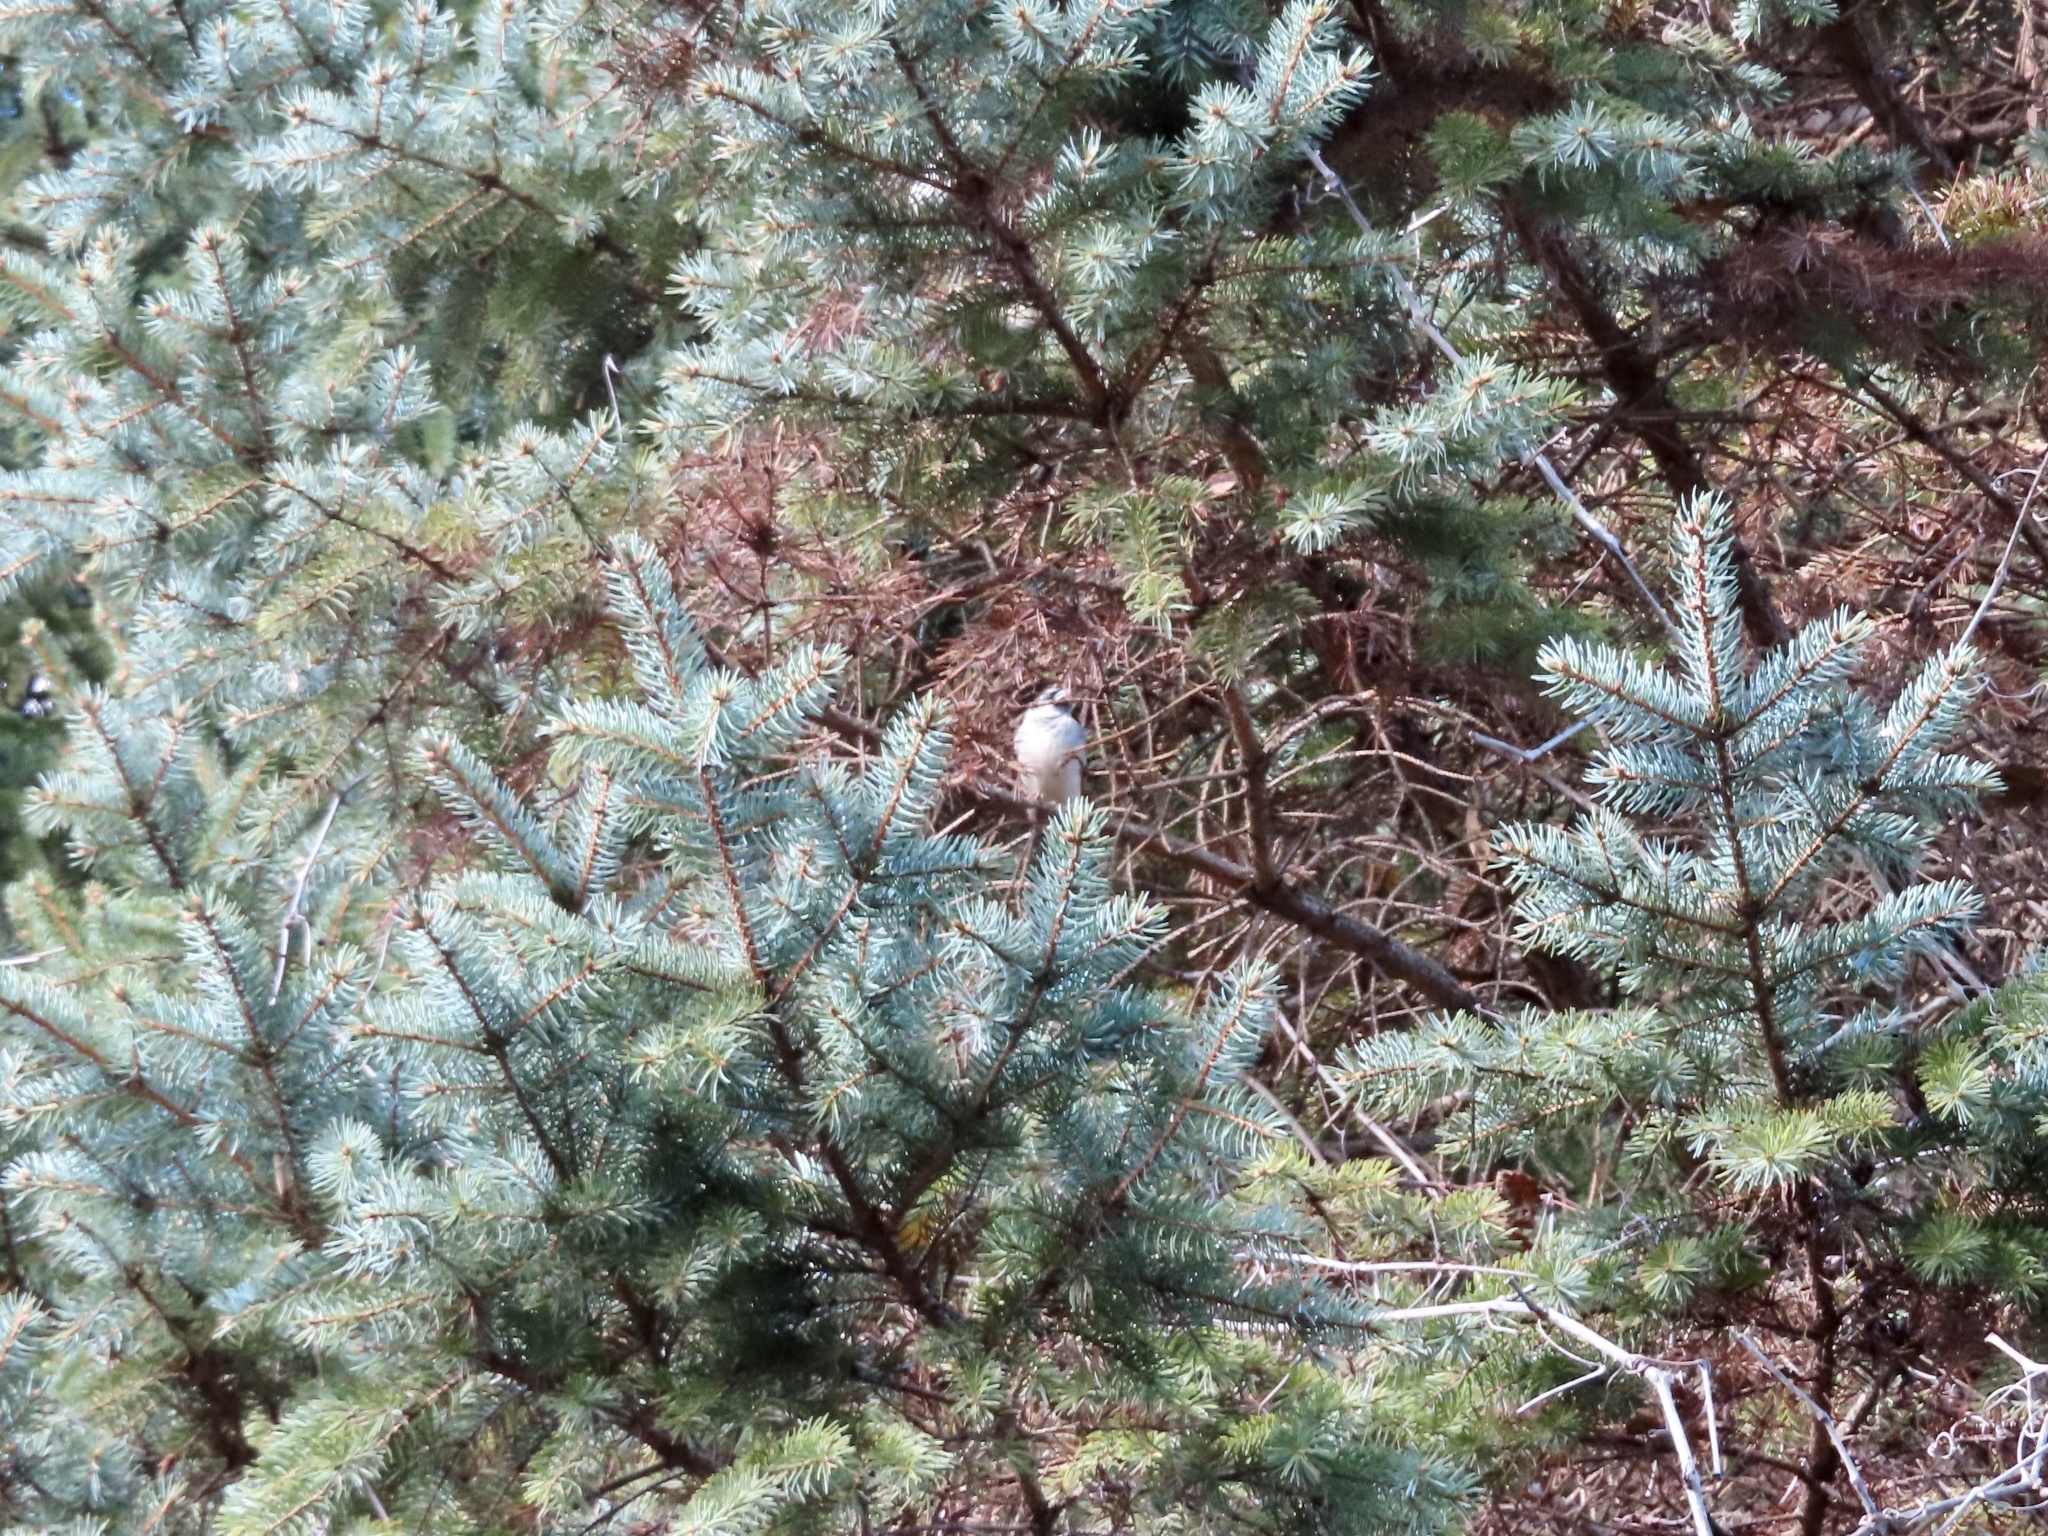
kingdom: Animalia
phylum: Chordata
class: Aves
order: Passeriformes
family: Passeridae
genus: Passer
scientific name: Passer domesticus
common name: House sparrow
